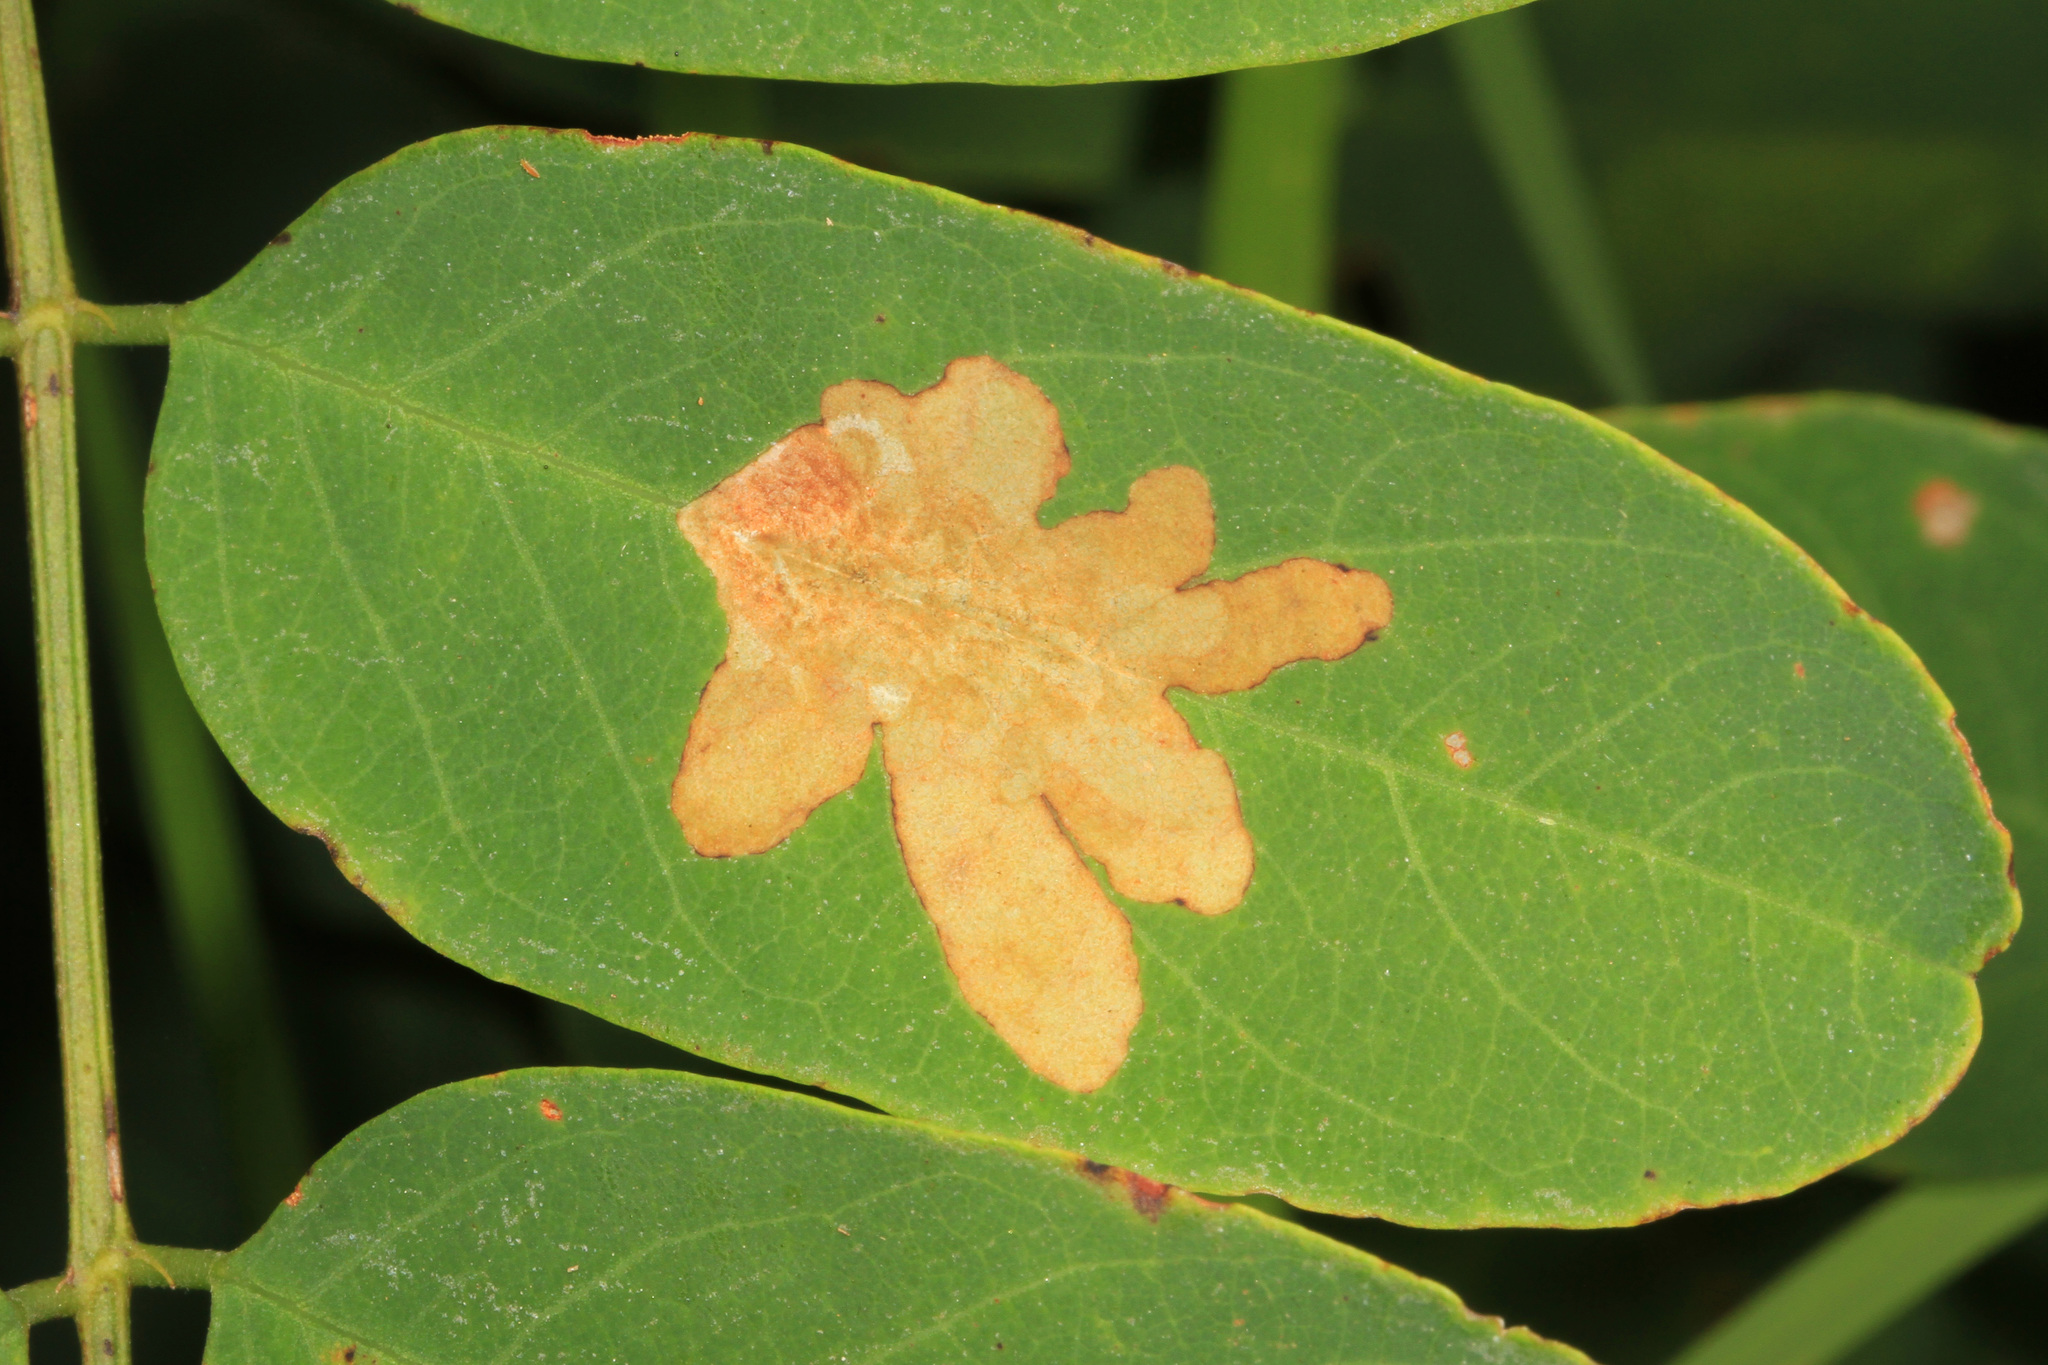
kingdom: Animalia
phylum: Arthropoda
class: Insecta
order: Lepidoptera
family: Gracillariidae
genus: Parectopa
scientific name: Parectopa robiniella
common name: Locust digitate leafminer
